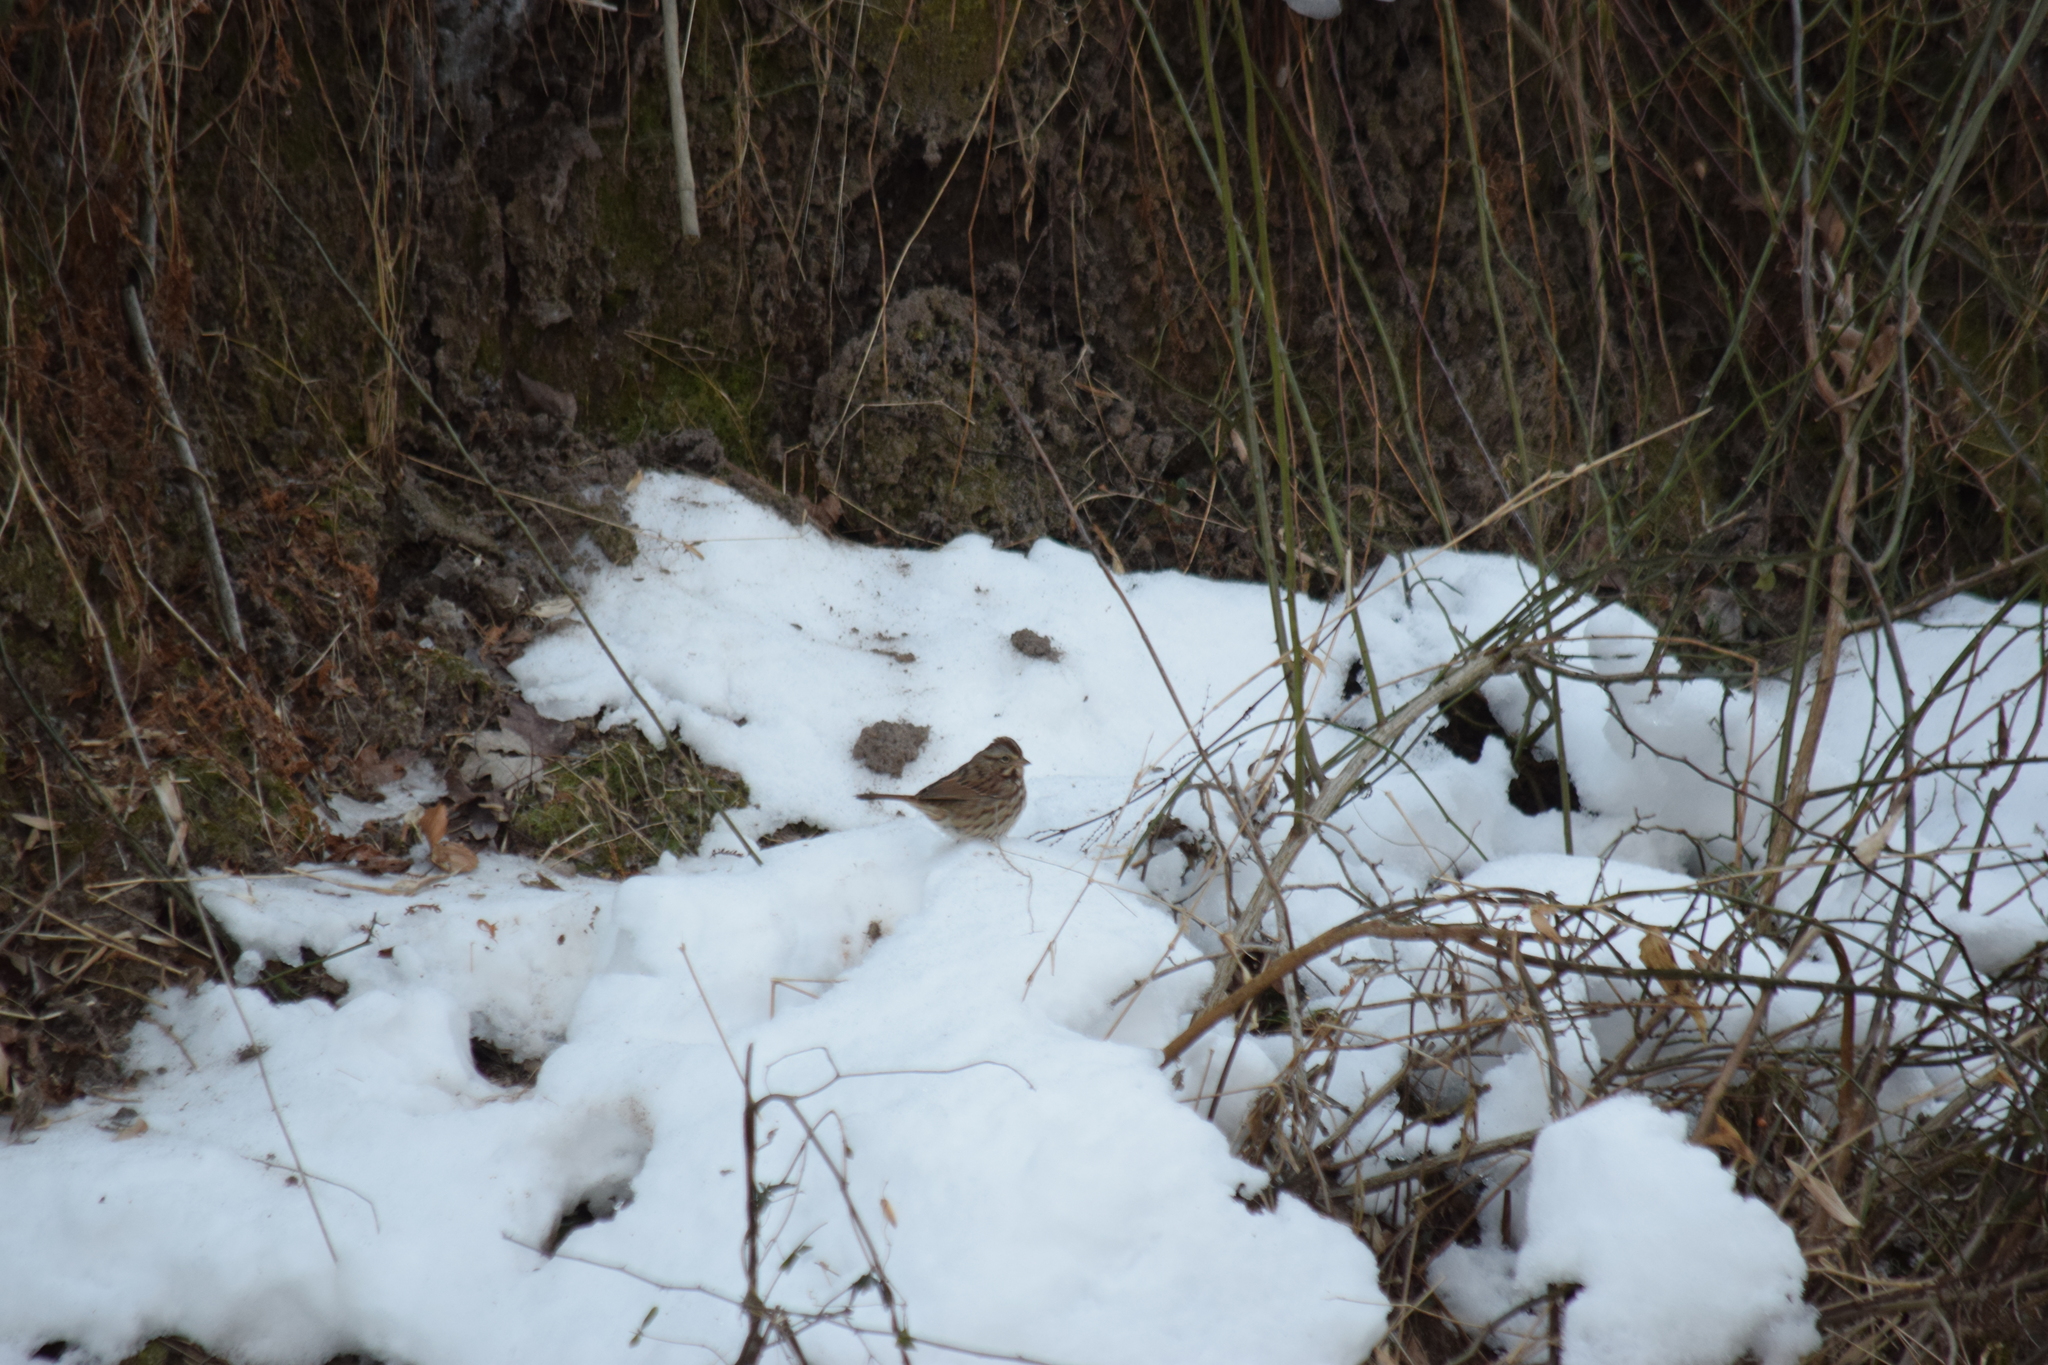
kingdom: Animalia
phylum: Chordata
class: Aves
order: Passeriformes
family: Passerellidae
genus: Melospiza
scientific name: Melospiza melodia
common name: Song sparrow
